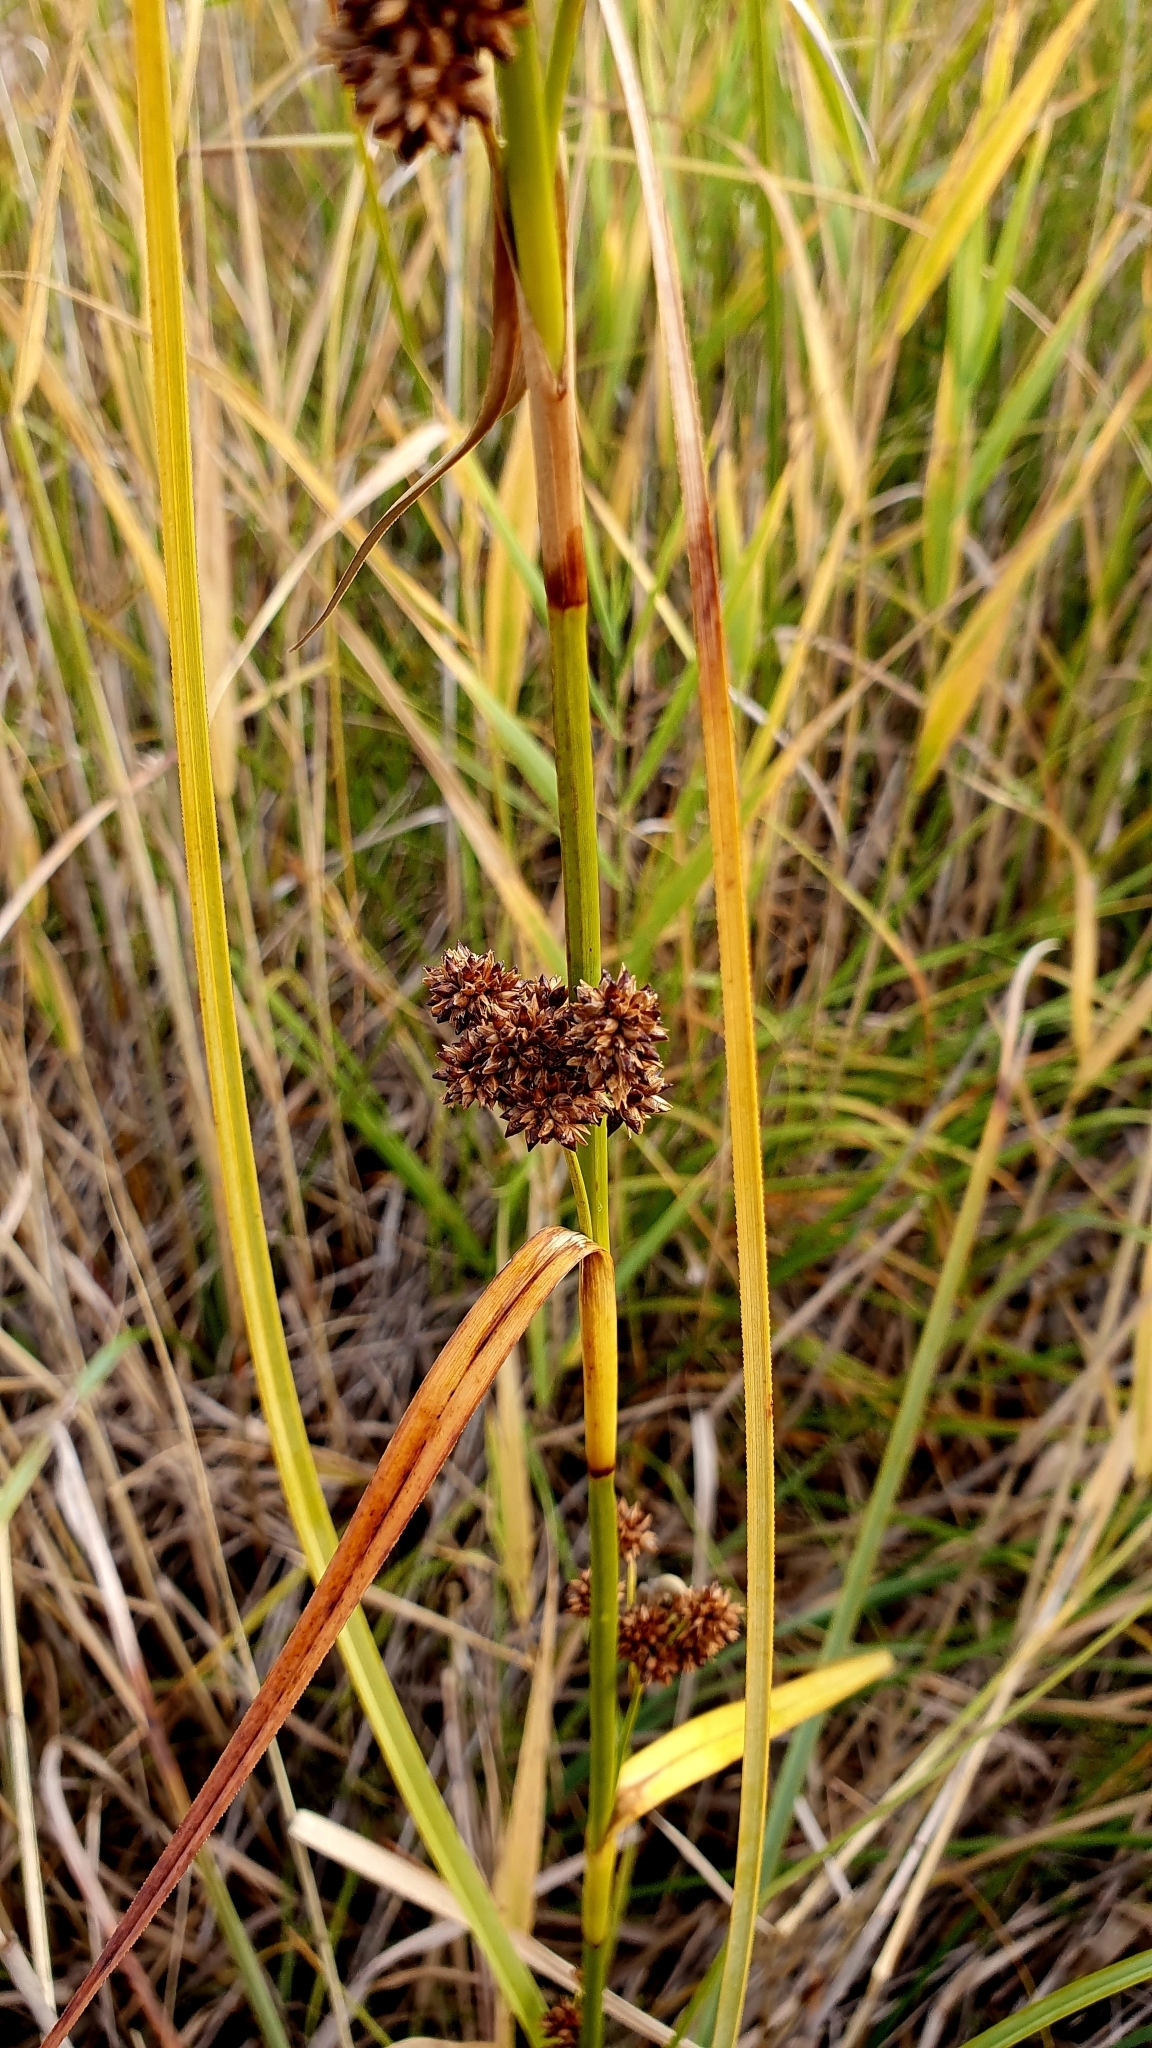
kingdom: Plantae
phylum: Tracheophyta
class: Liliopsida
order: Poales
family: Cyperaceae
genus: Cladium
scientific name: Cladium mariscus
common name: Great fen-sedge
